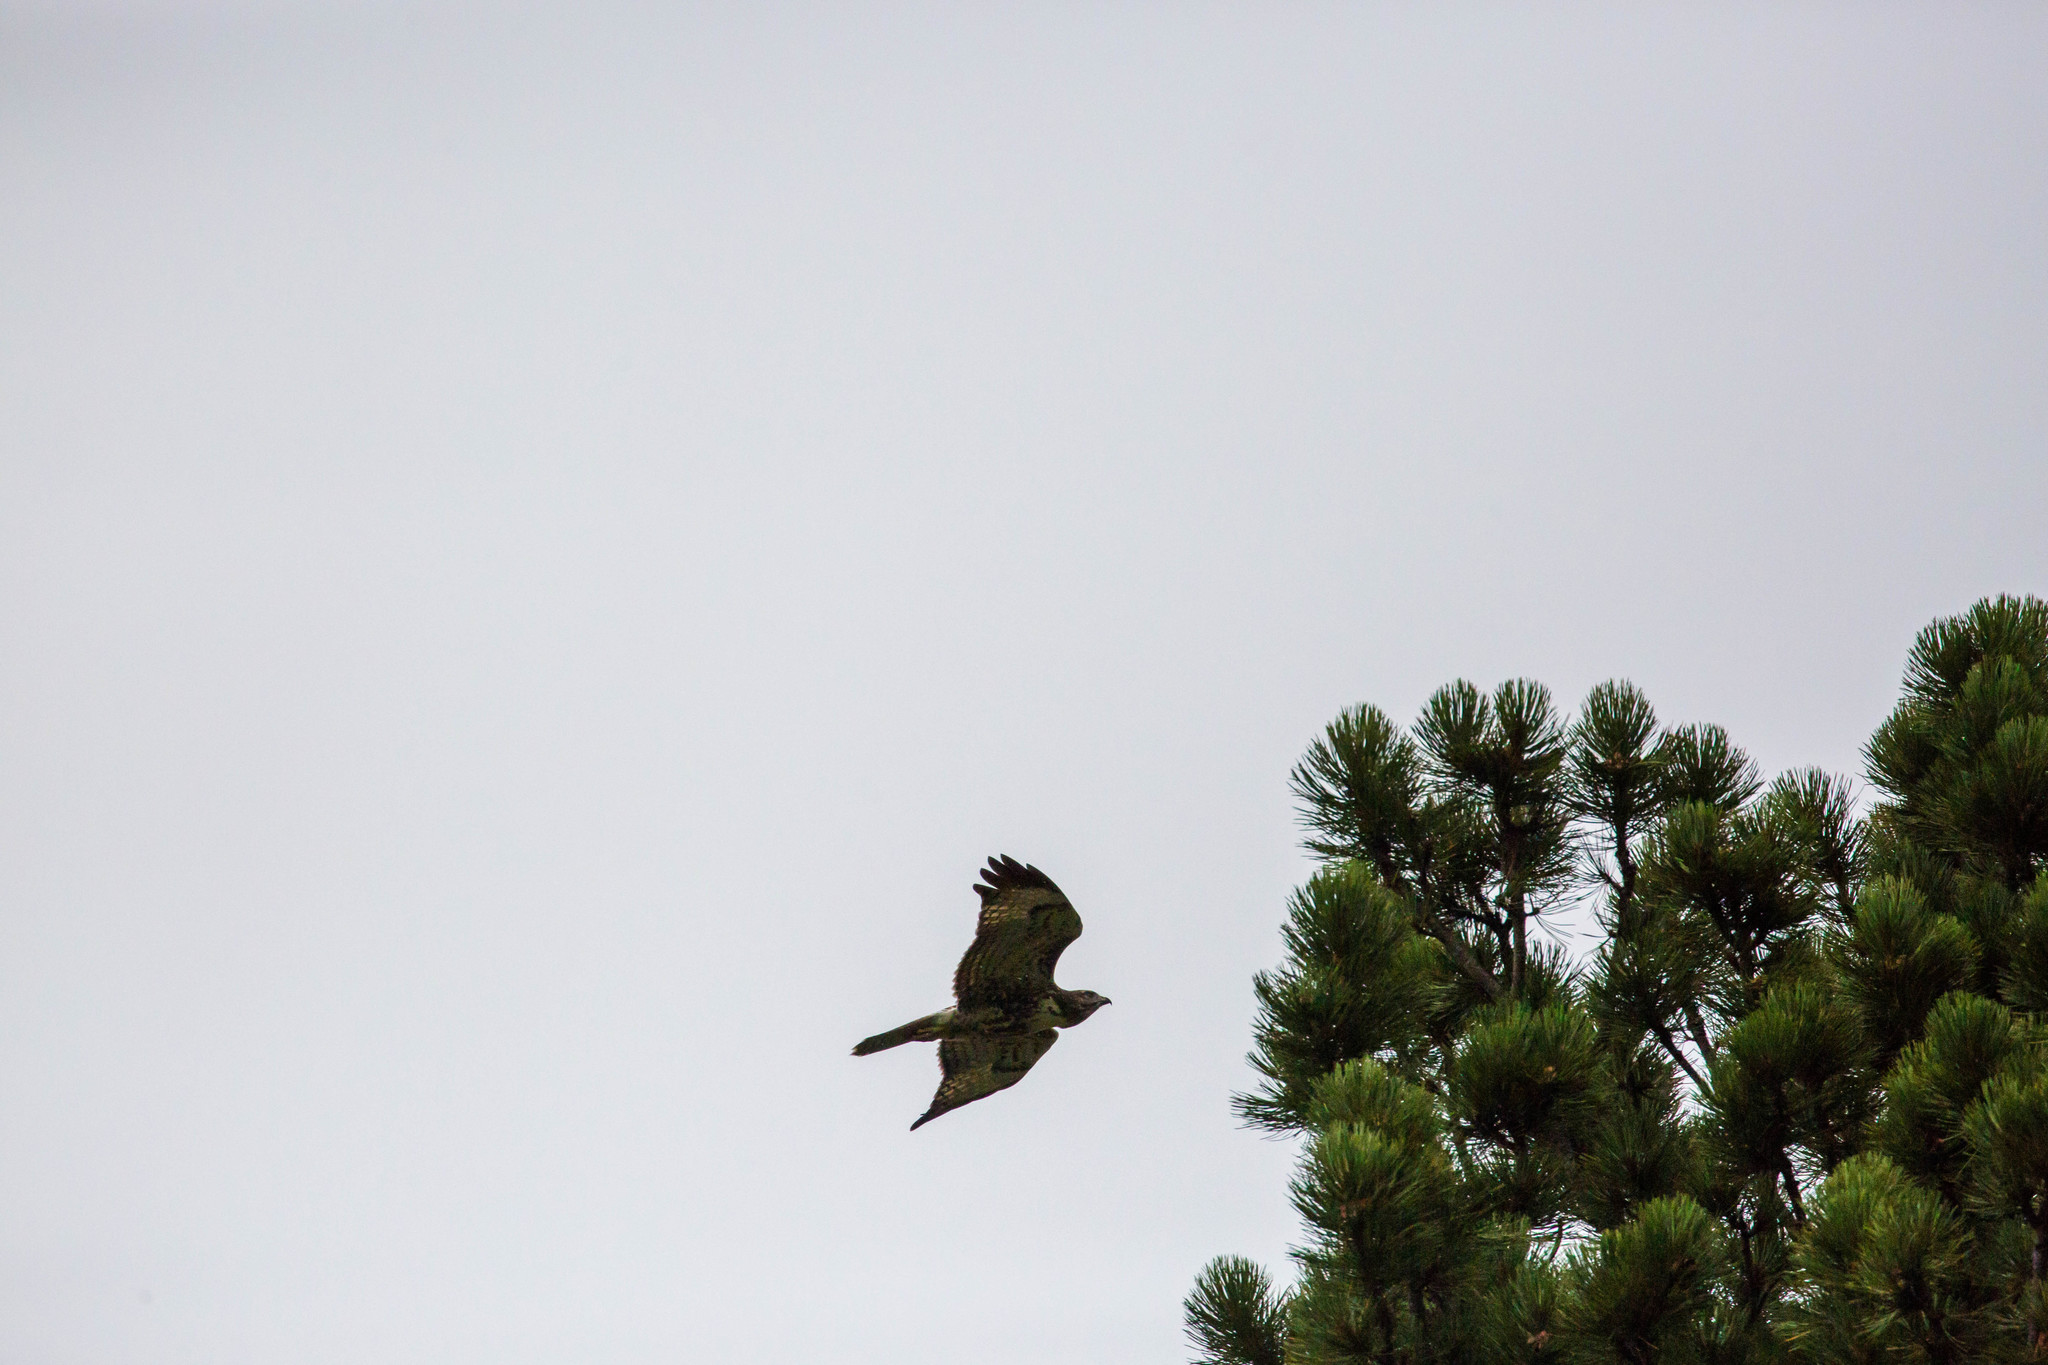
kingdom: Animalia
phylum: Chordata
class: Aves
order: Accipitriformes
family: Accipitridae
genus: Buteo
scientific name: Buteo jamaicensis
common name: Red-tailed hawk
